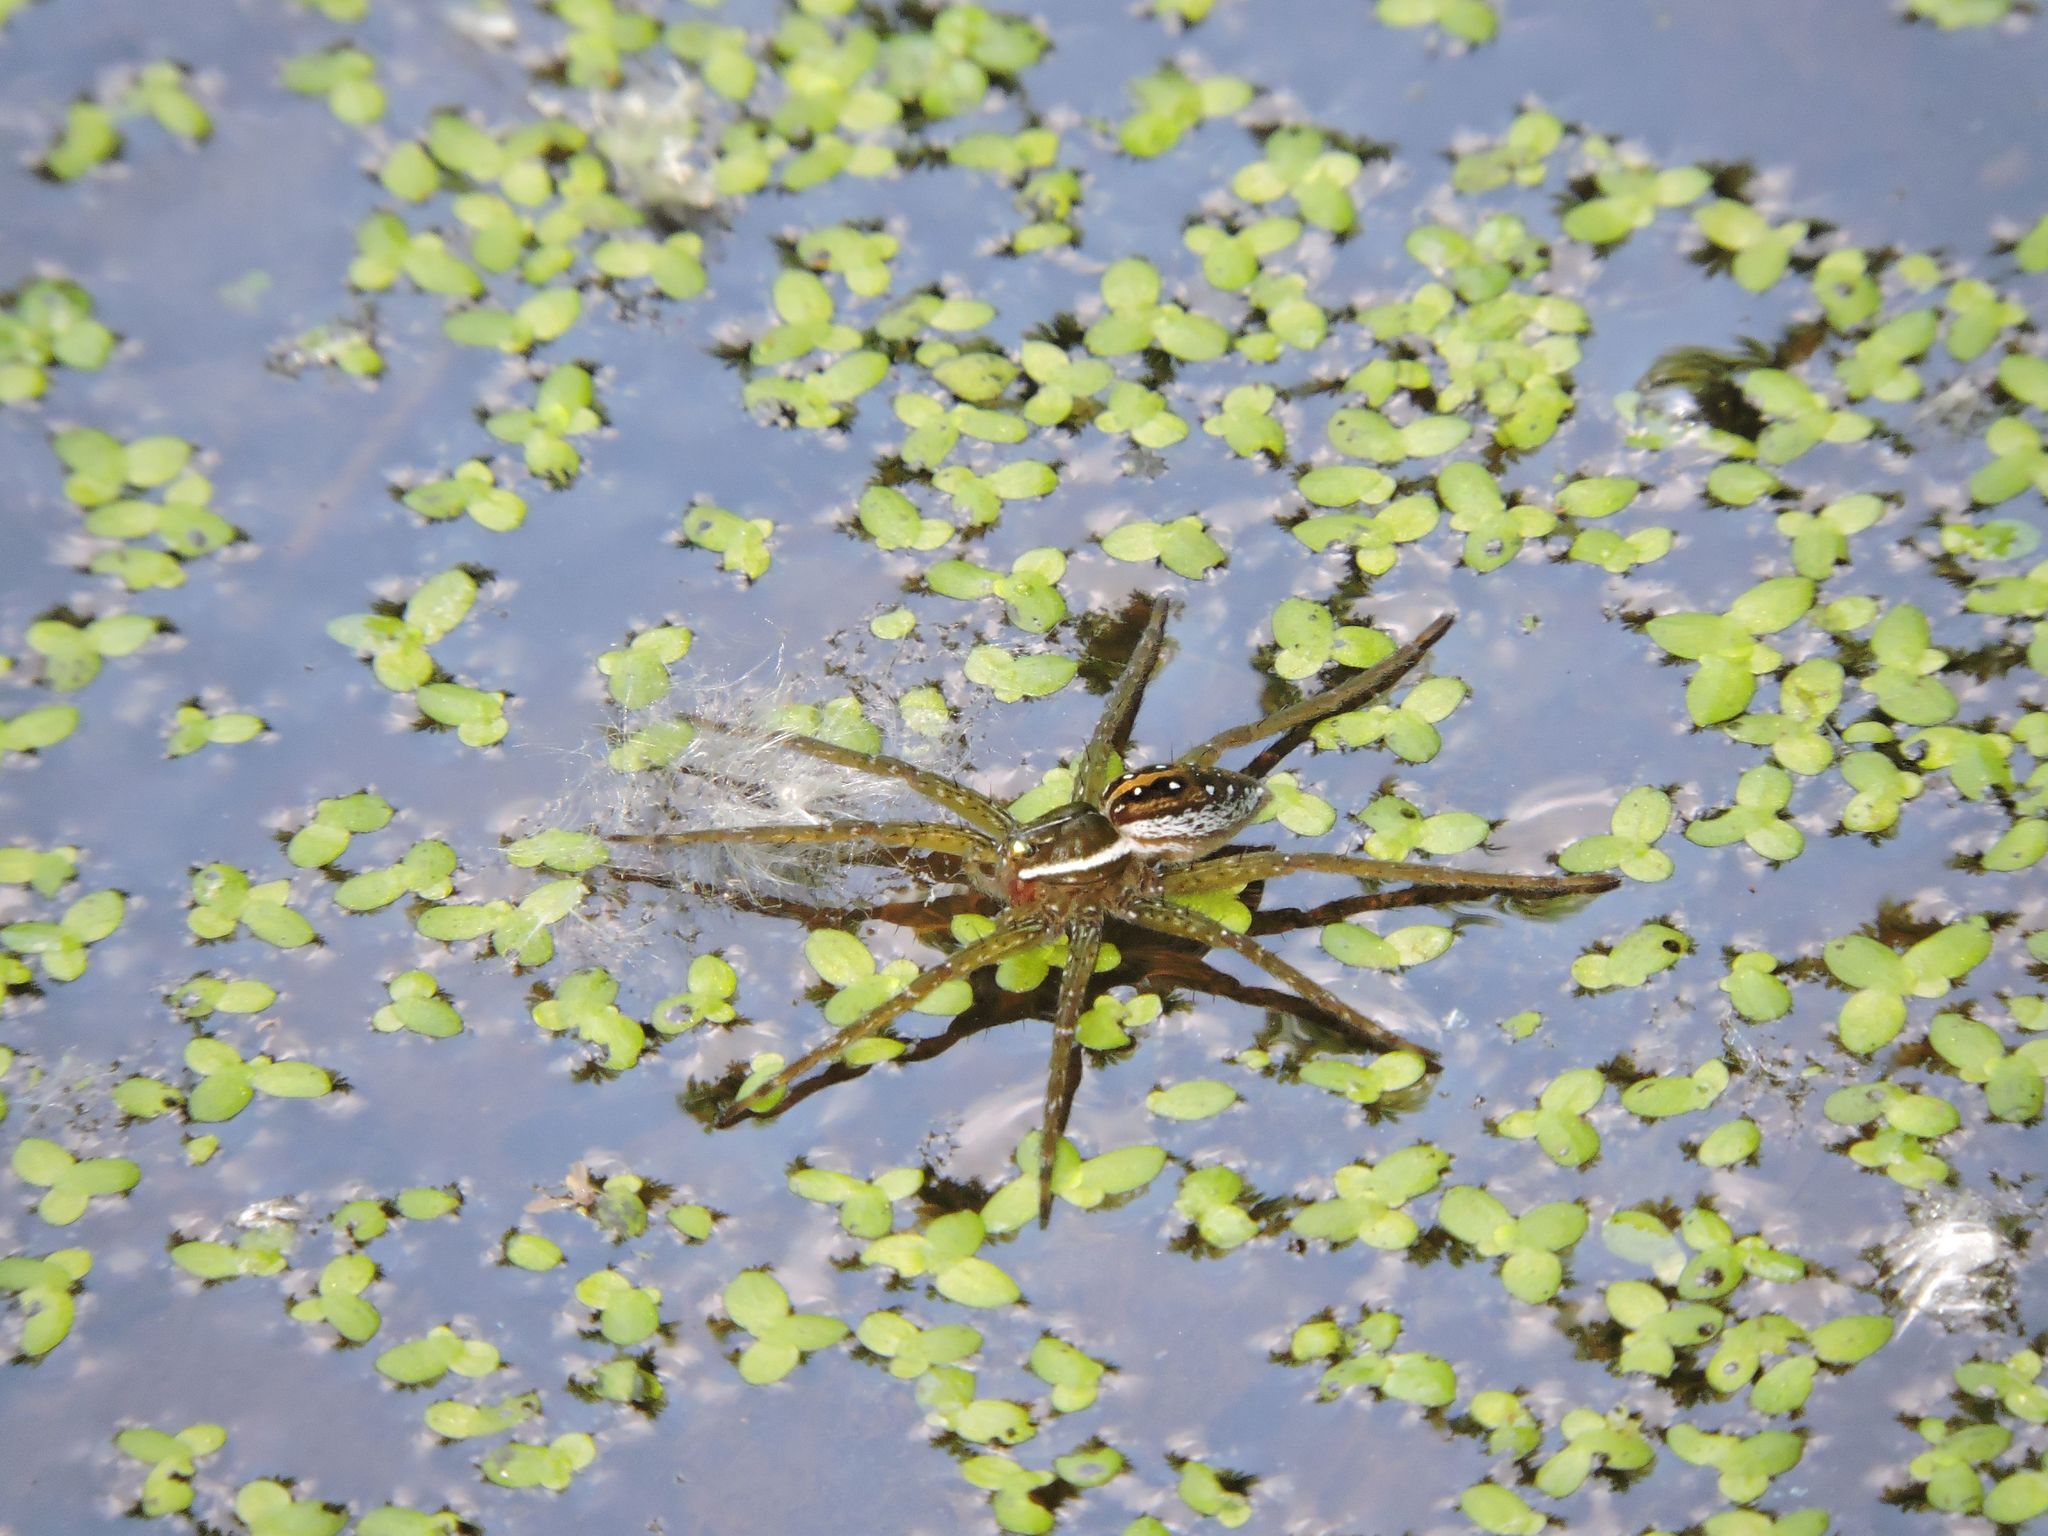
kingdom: Animalia
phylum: Arthropoda
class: Arachnida
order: Araneae
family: Pisauridae
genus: Dolomedes
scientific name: Dolomedes triton
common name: Six-spotted fishing spider
